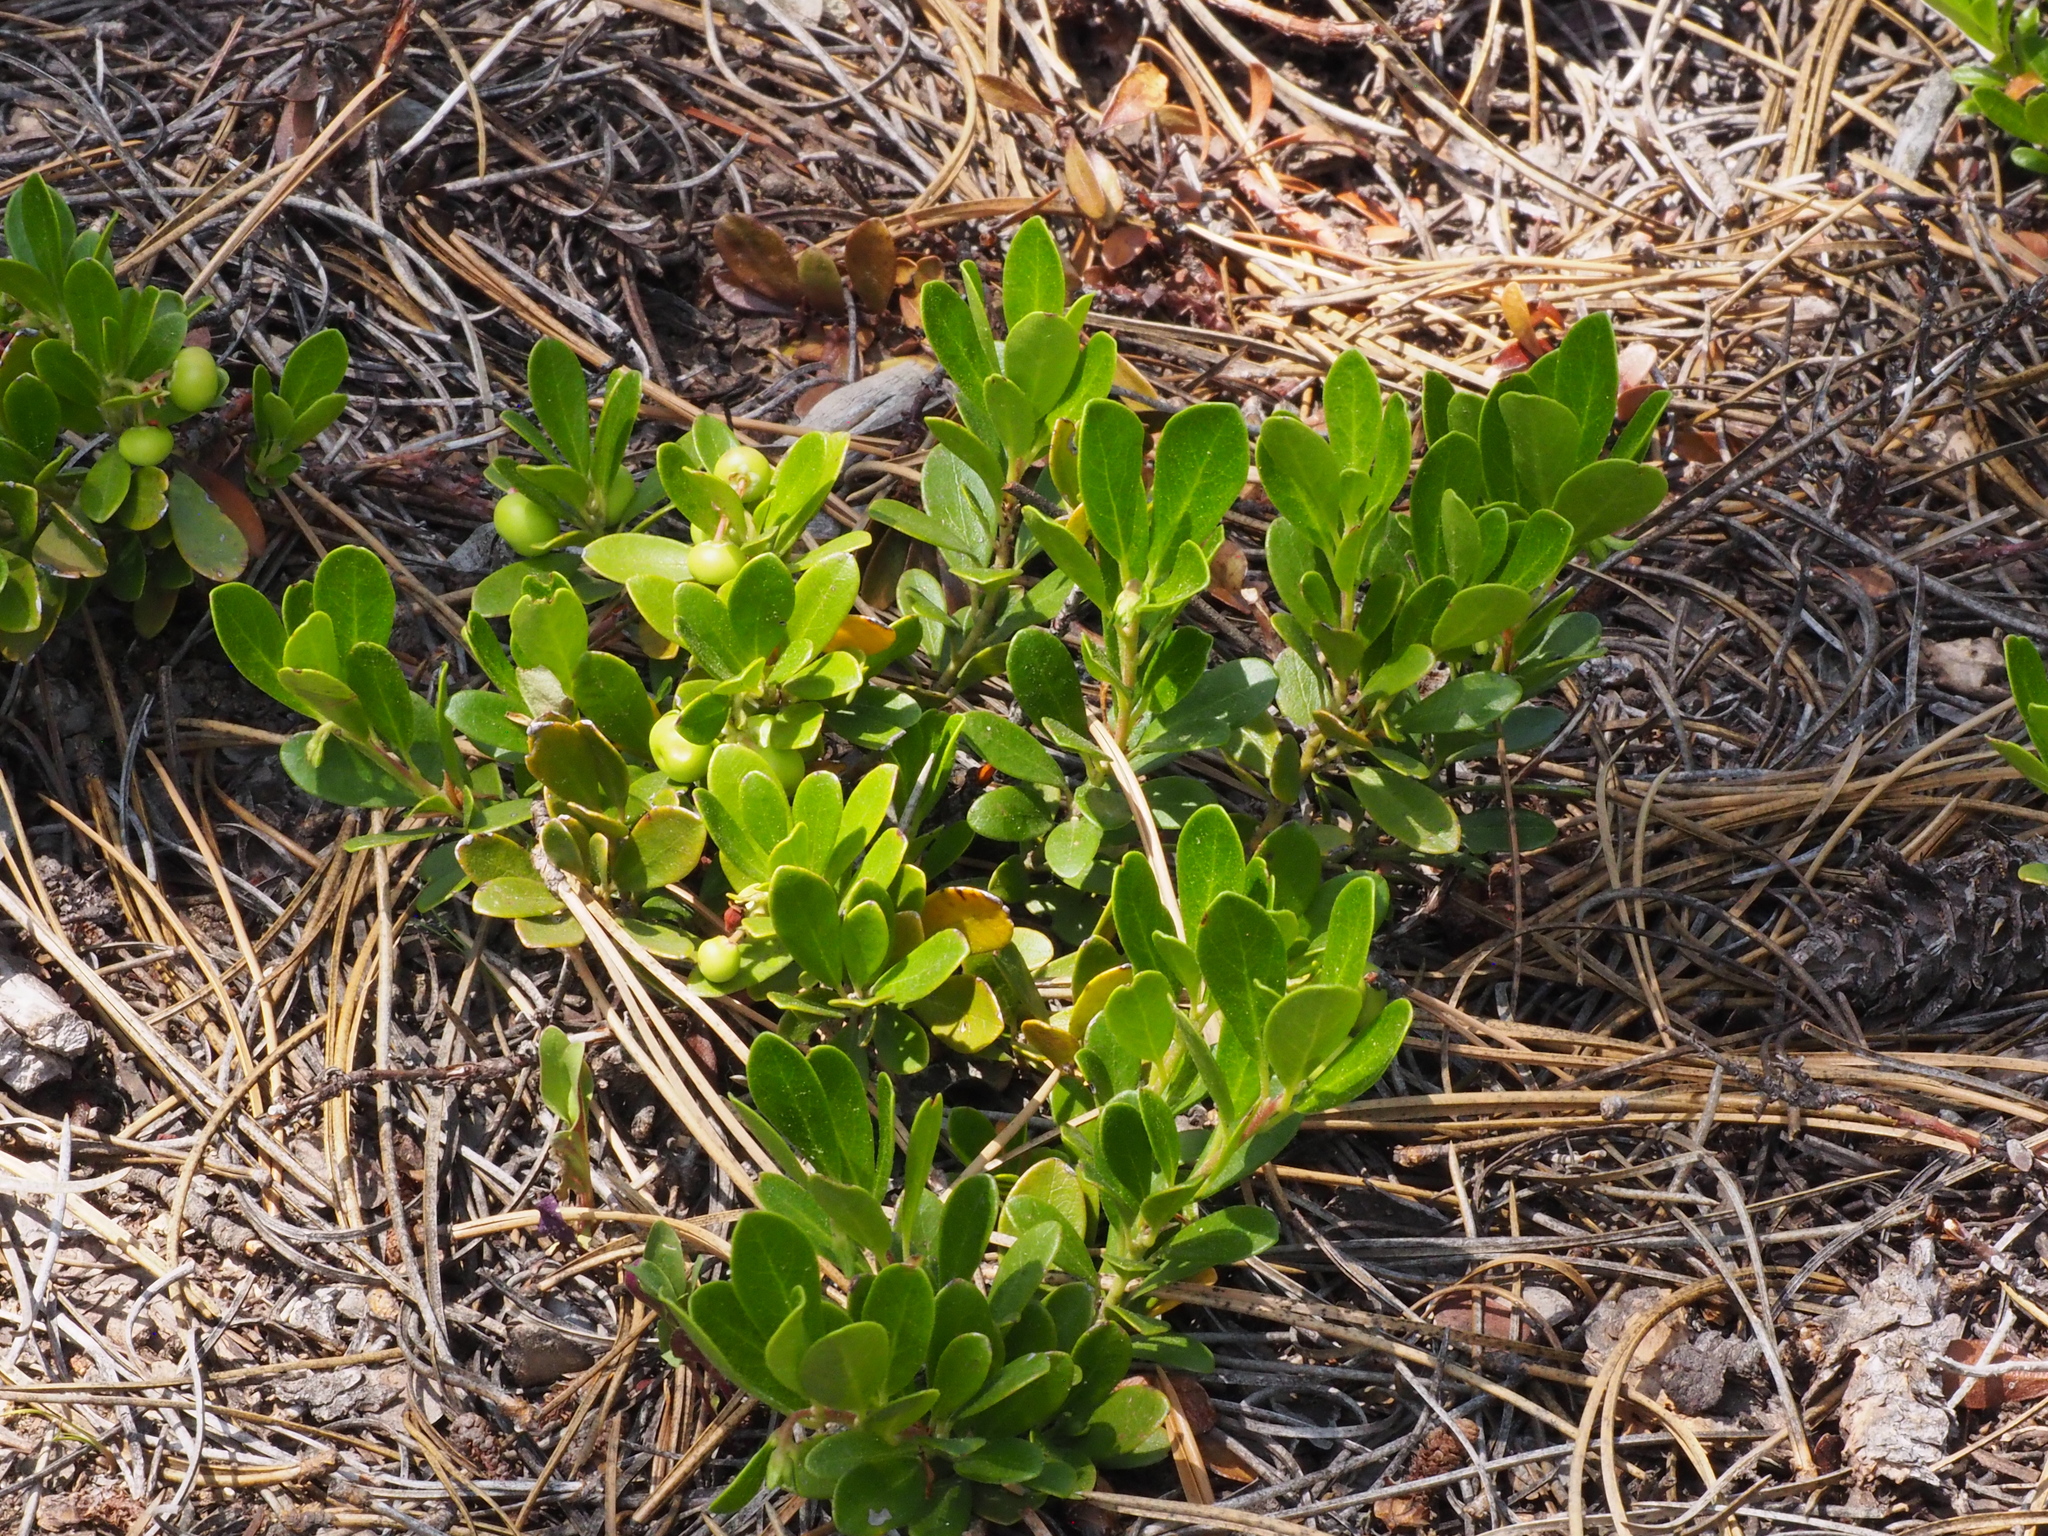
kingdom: Plantae
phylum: Tracheophyta
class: Magnoliopsida
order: Ericales
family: Ericaceae
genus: Arctostaphylos
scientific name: Arctostaphylos uva-ursi
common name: Bearberry
